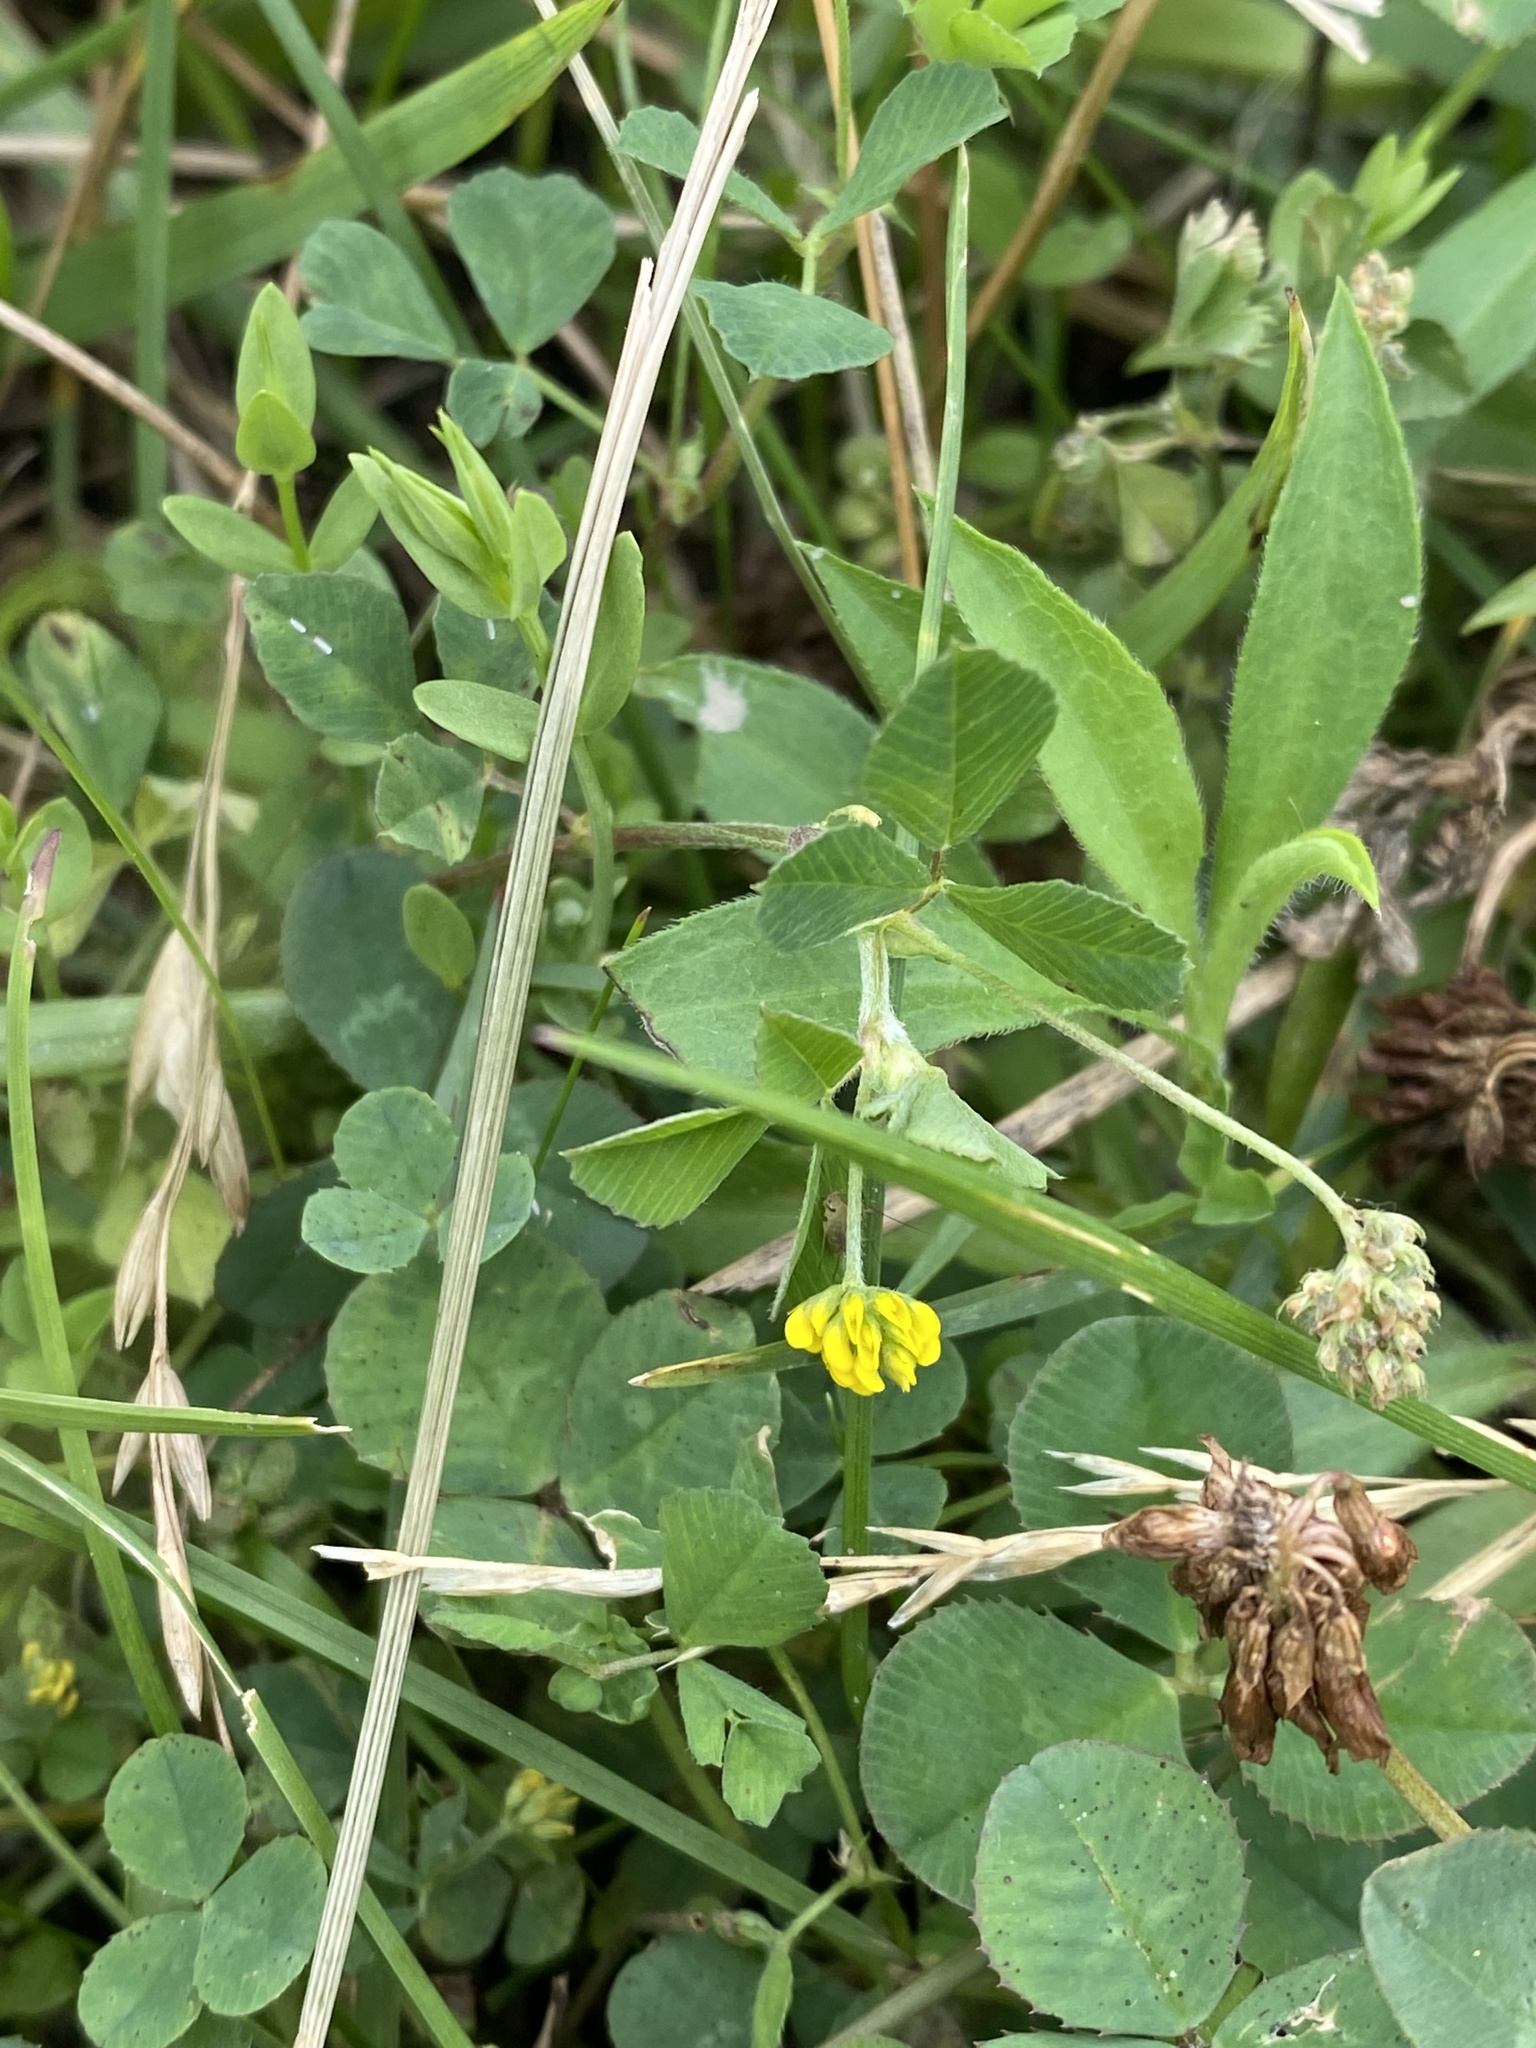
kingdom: Plantae
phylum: Tracheophyta
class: Magnoliopsida
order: Fabales
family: Fabaceae
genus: Medicago
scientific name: Medicago lupulina
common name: Black medick
